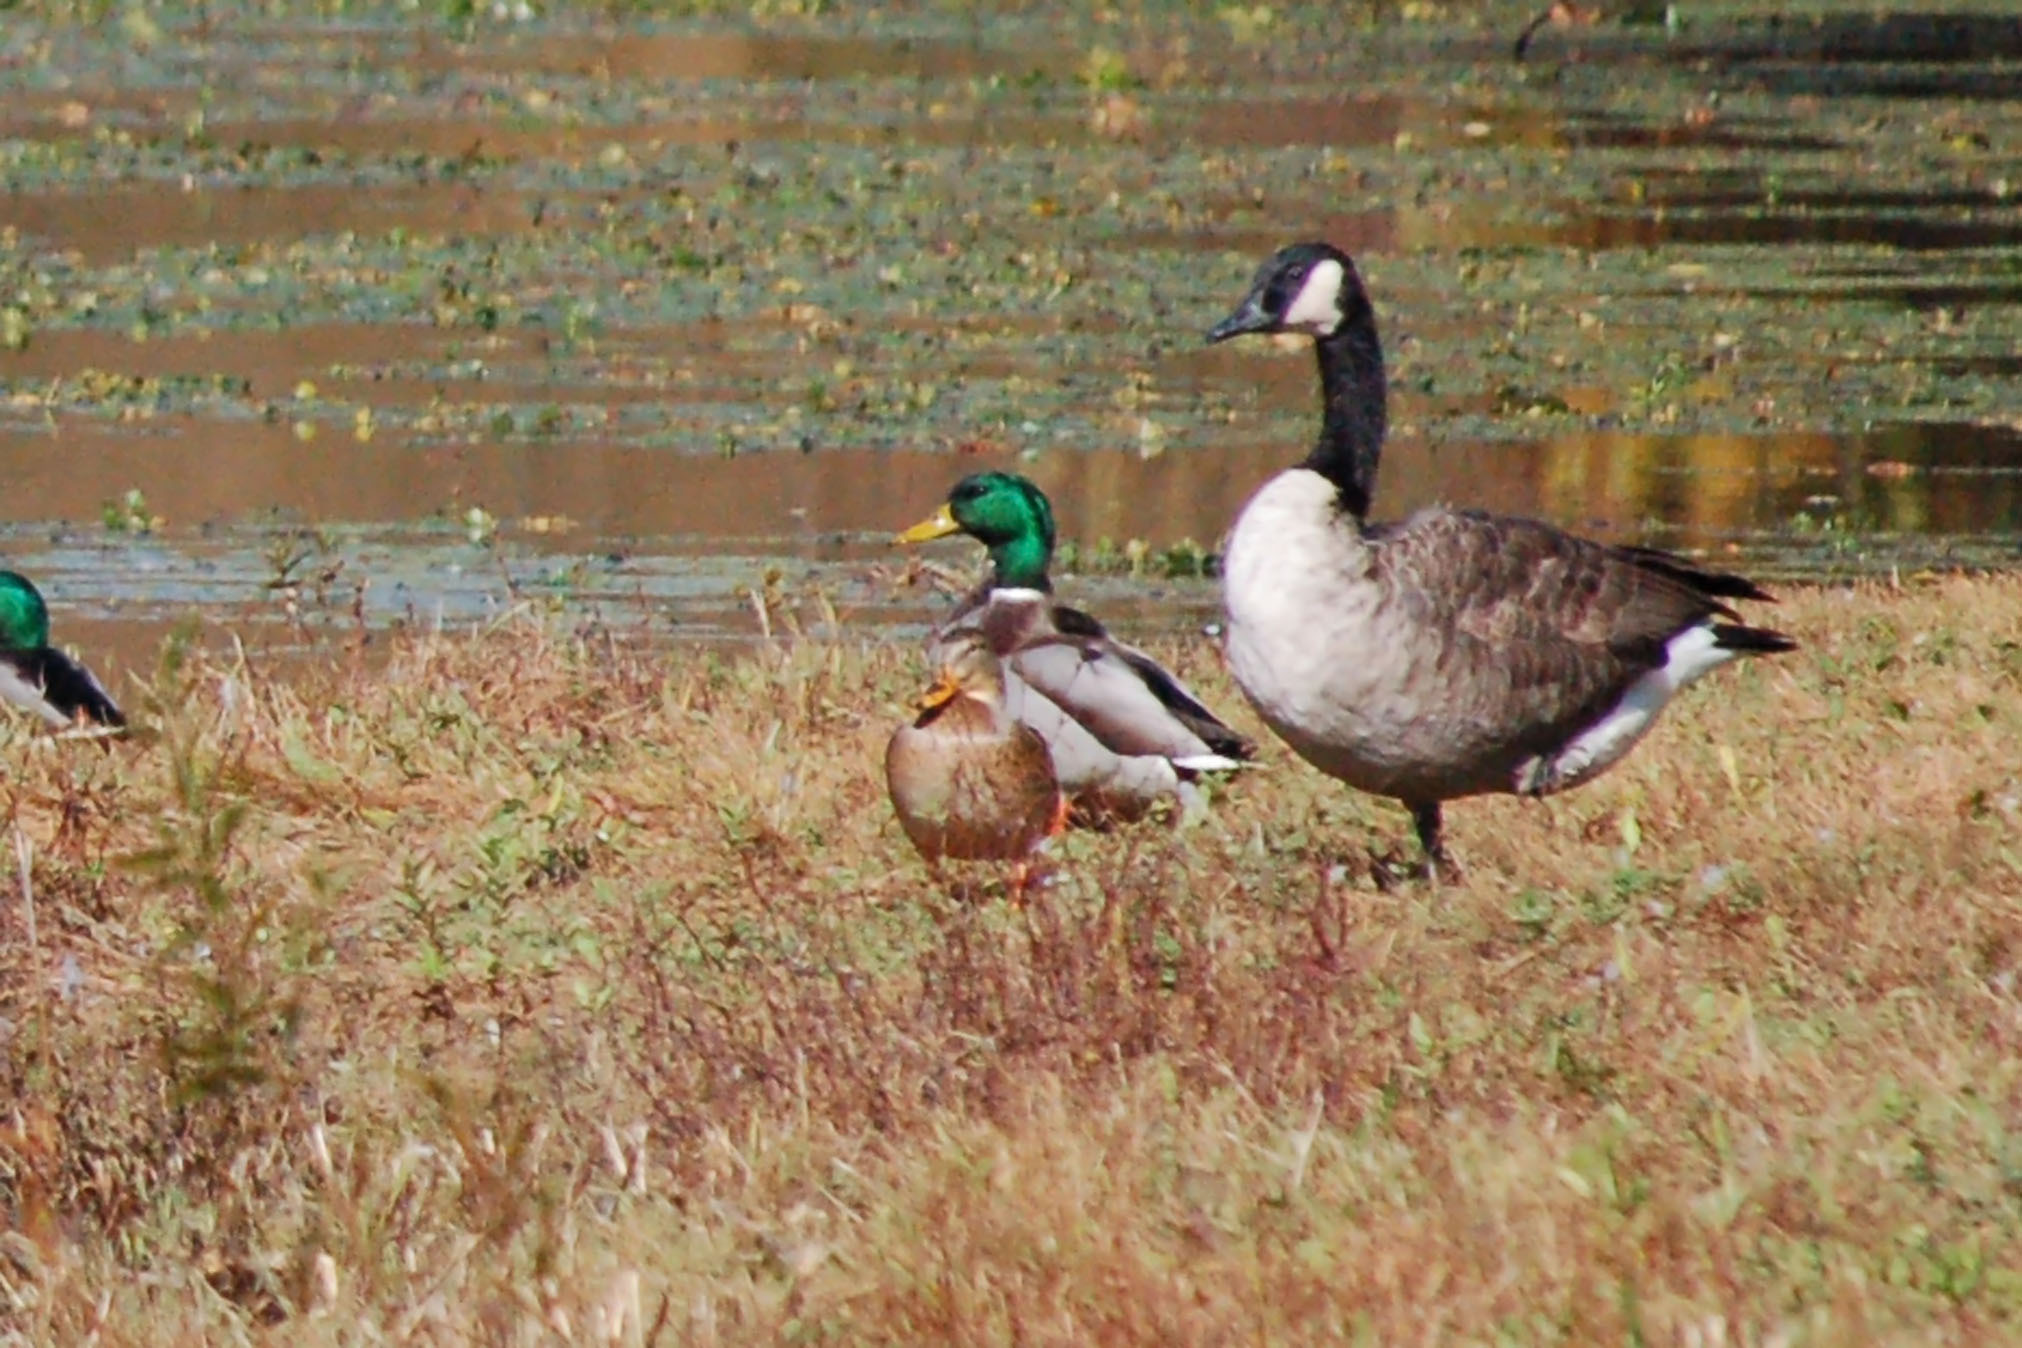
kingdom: Animalia
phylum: Chordata
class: Aves
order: Anseriformes
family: Anatidae
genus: Anas
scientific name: Anas platyrhynchos
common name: Mallard
